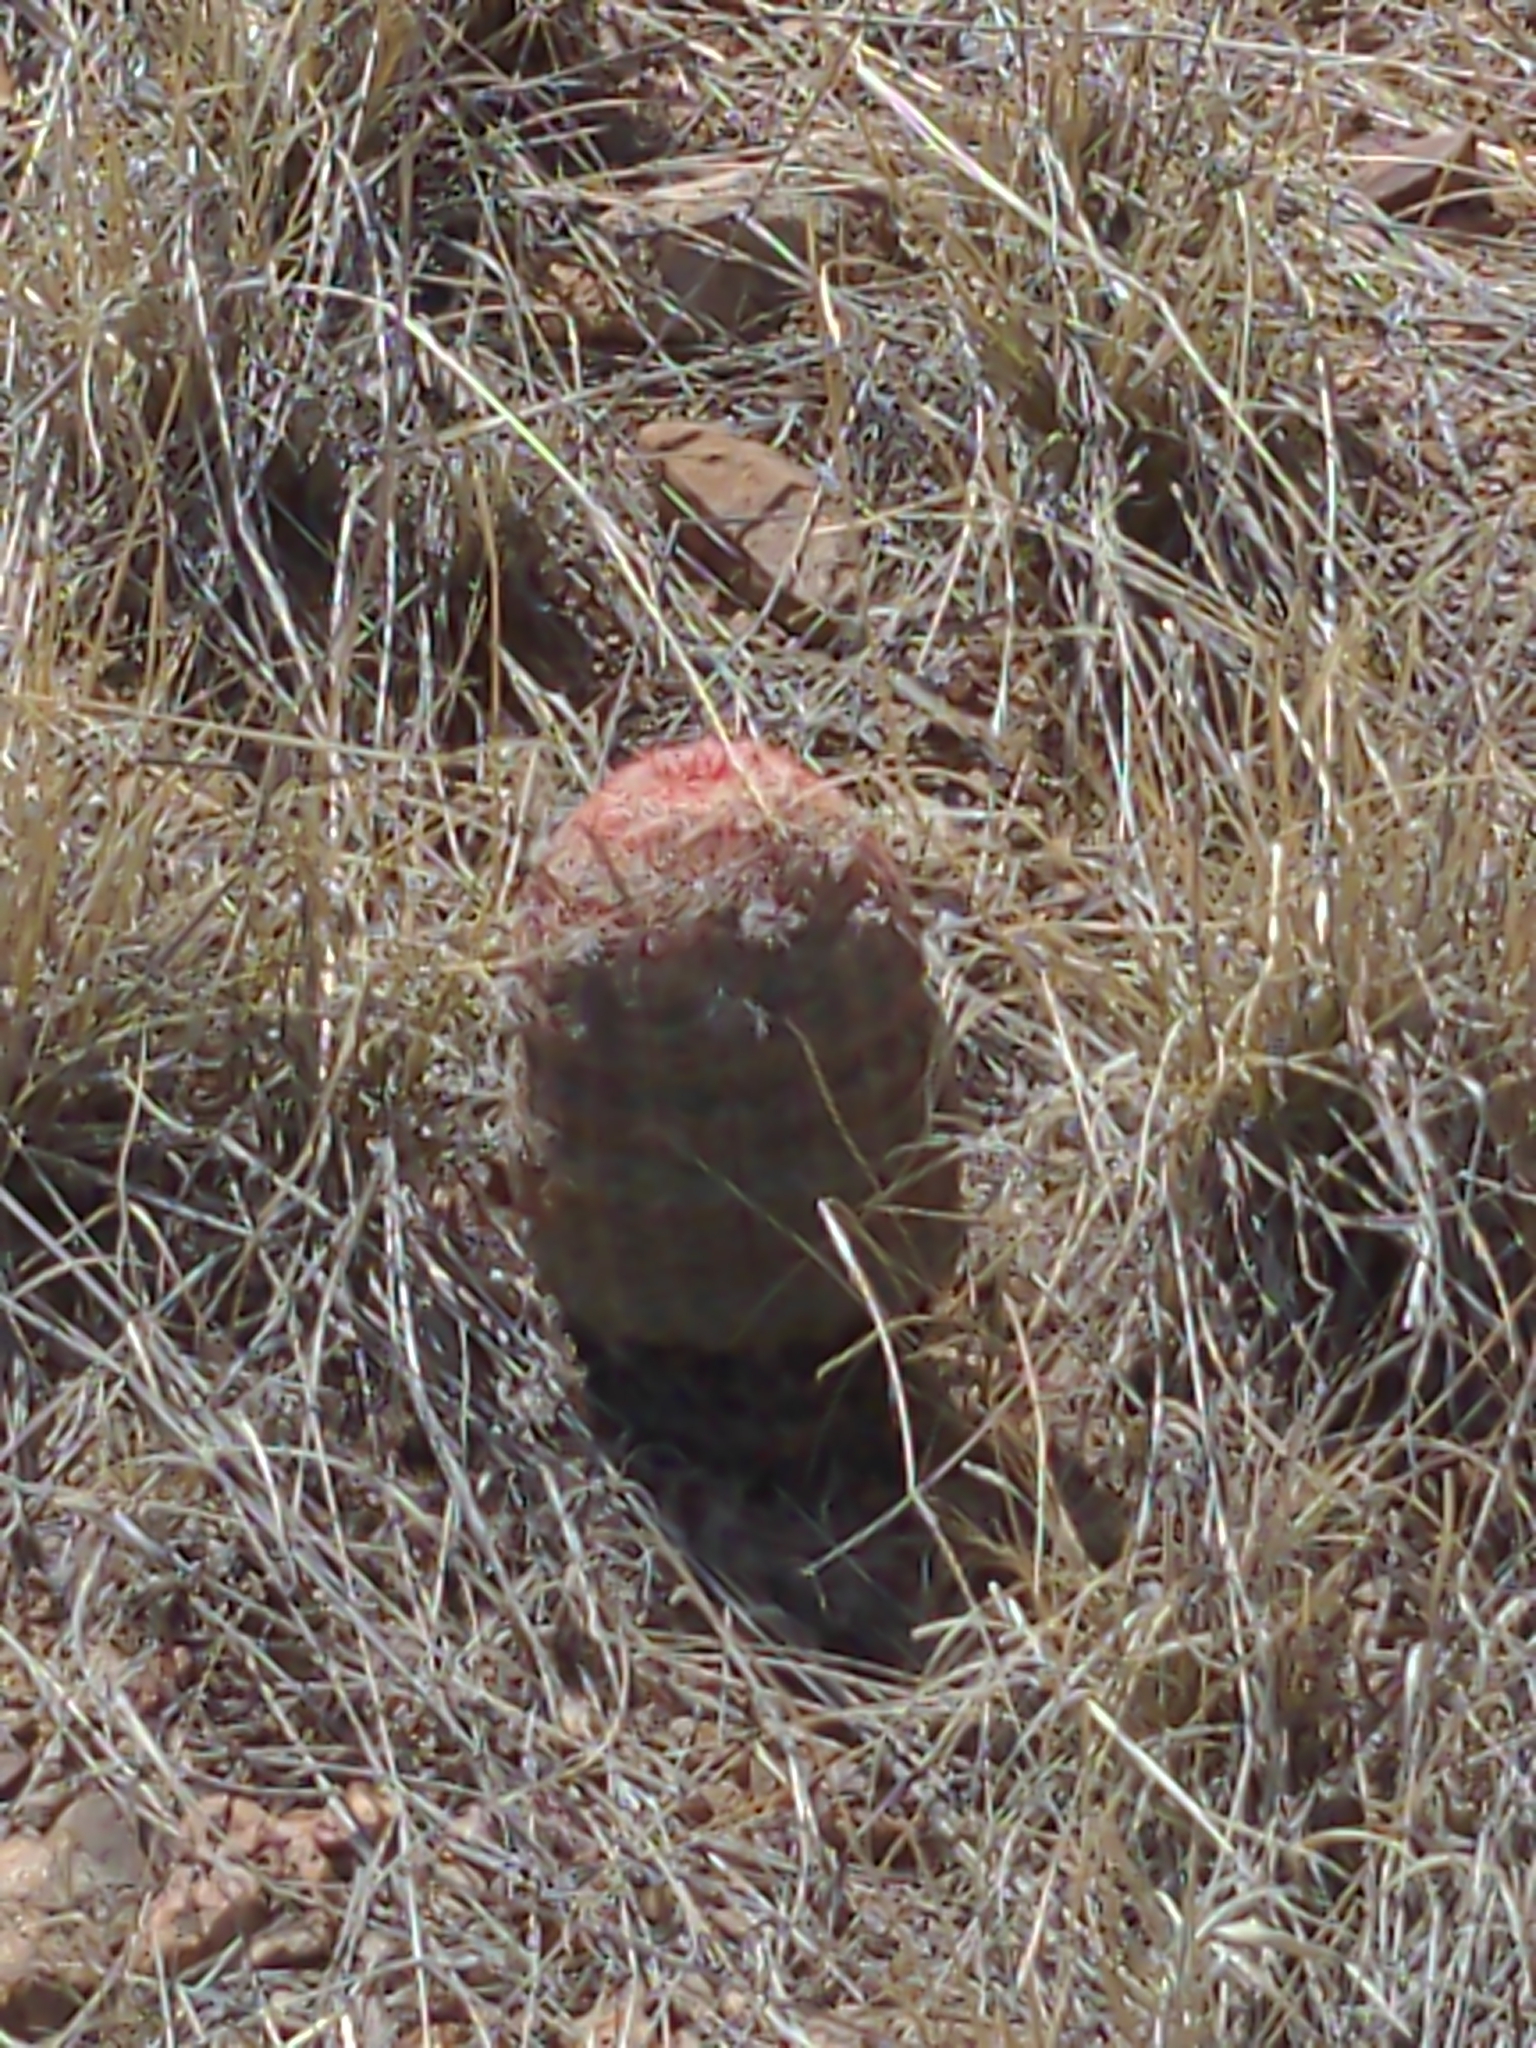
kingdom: Plantae
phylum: Tracheophyta
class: Magnoliopsida
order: Caryophyllales
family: Cactaceae
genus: Echinocereus
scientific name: Echinocereus rigidissimus
